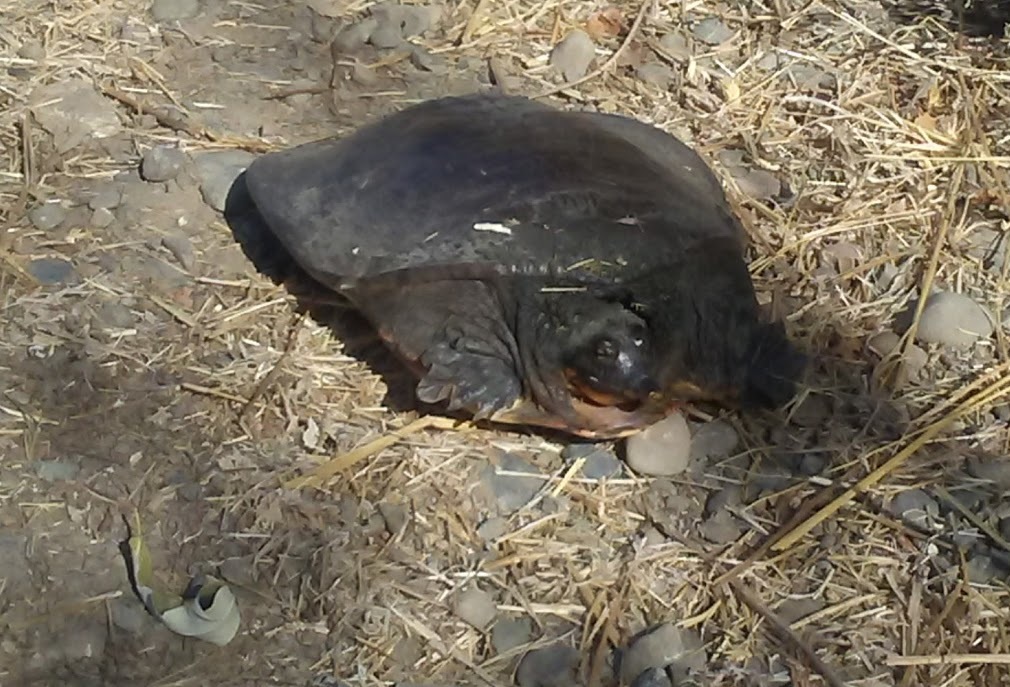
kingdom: Animalia
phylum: Chordata
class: Testudines
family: Trionychidae
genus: Apalone
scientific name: Apalone spinifera
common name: Spiny softshell turtle
